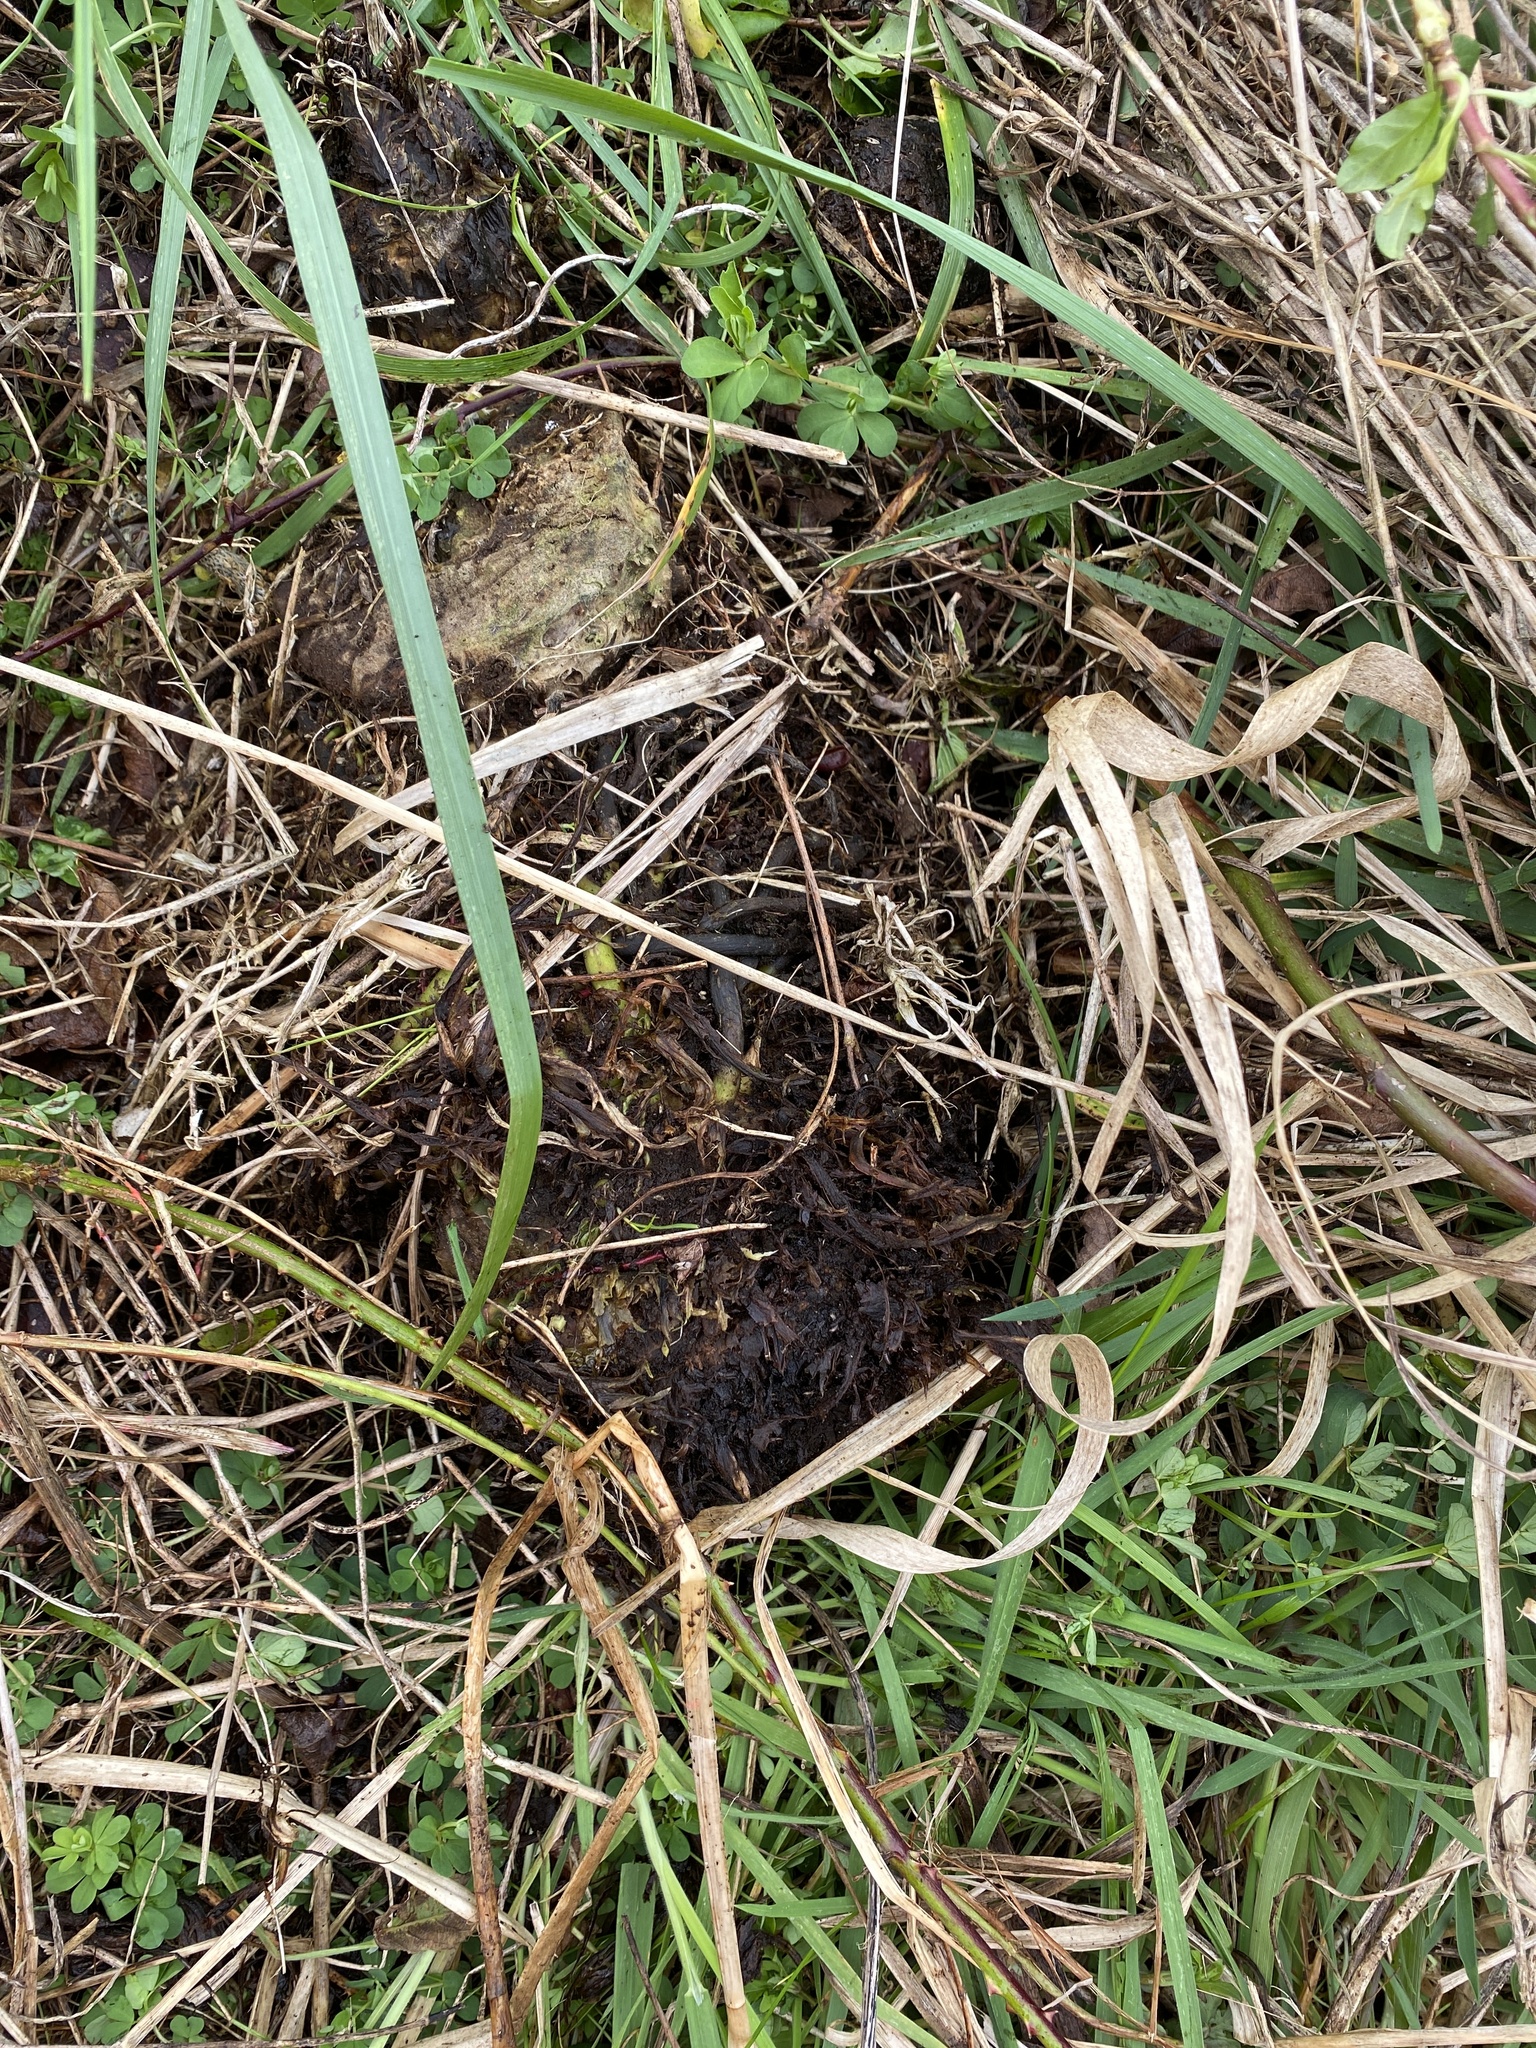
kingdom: Plantae
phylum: Tracheophyta
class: Magnoliopsida
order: Gunnerales
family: Gunneraceae
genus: Gunnera
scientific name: Gunnera tinctoria
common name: Giant-rhubarb
